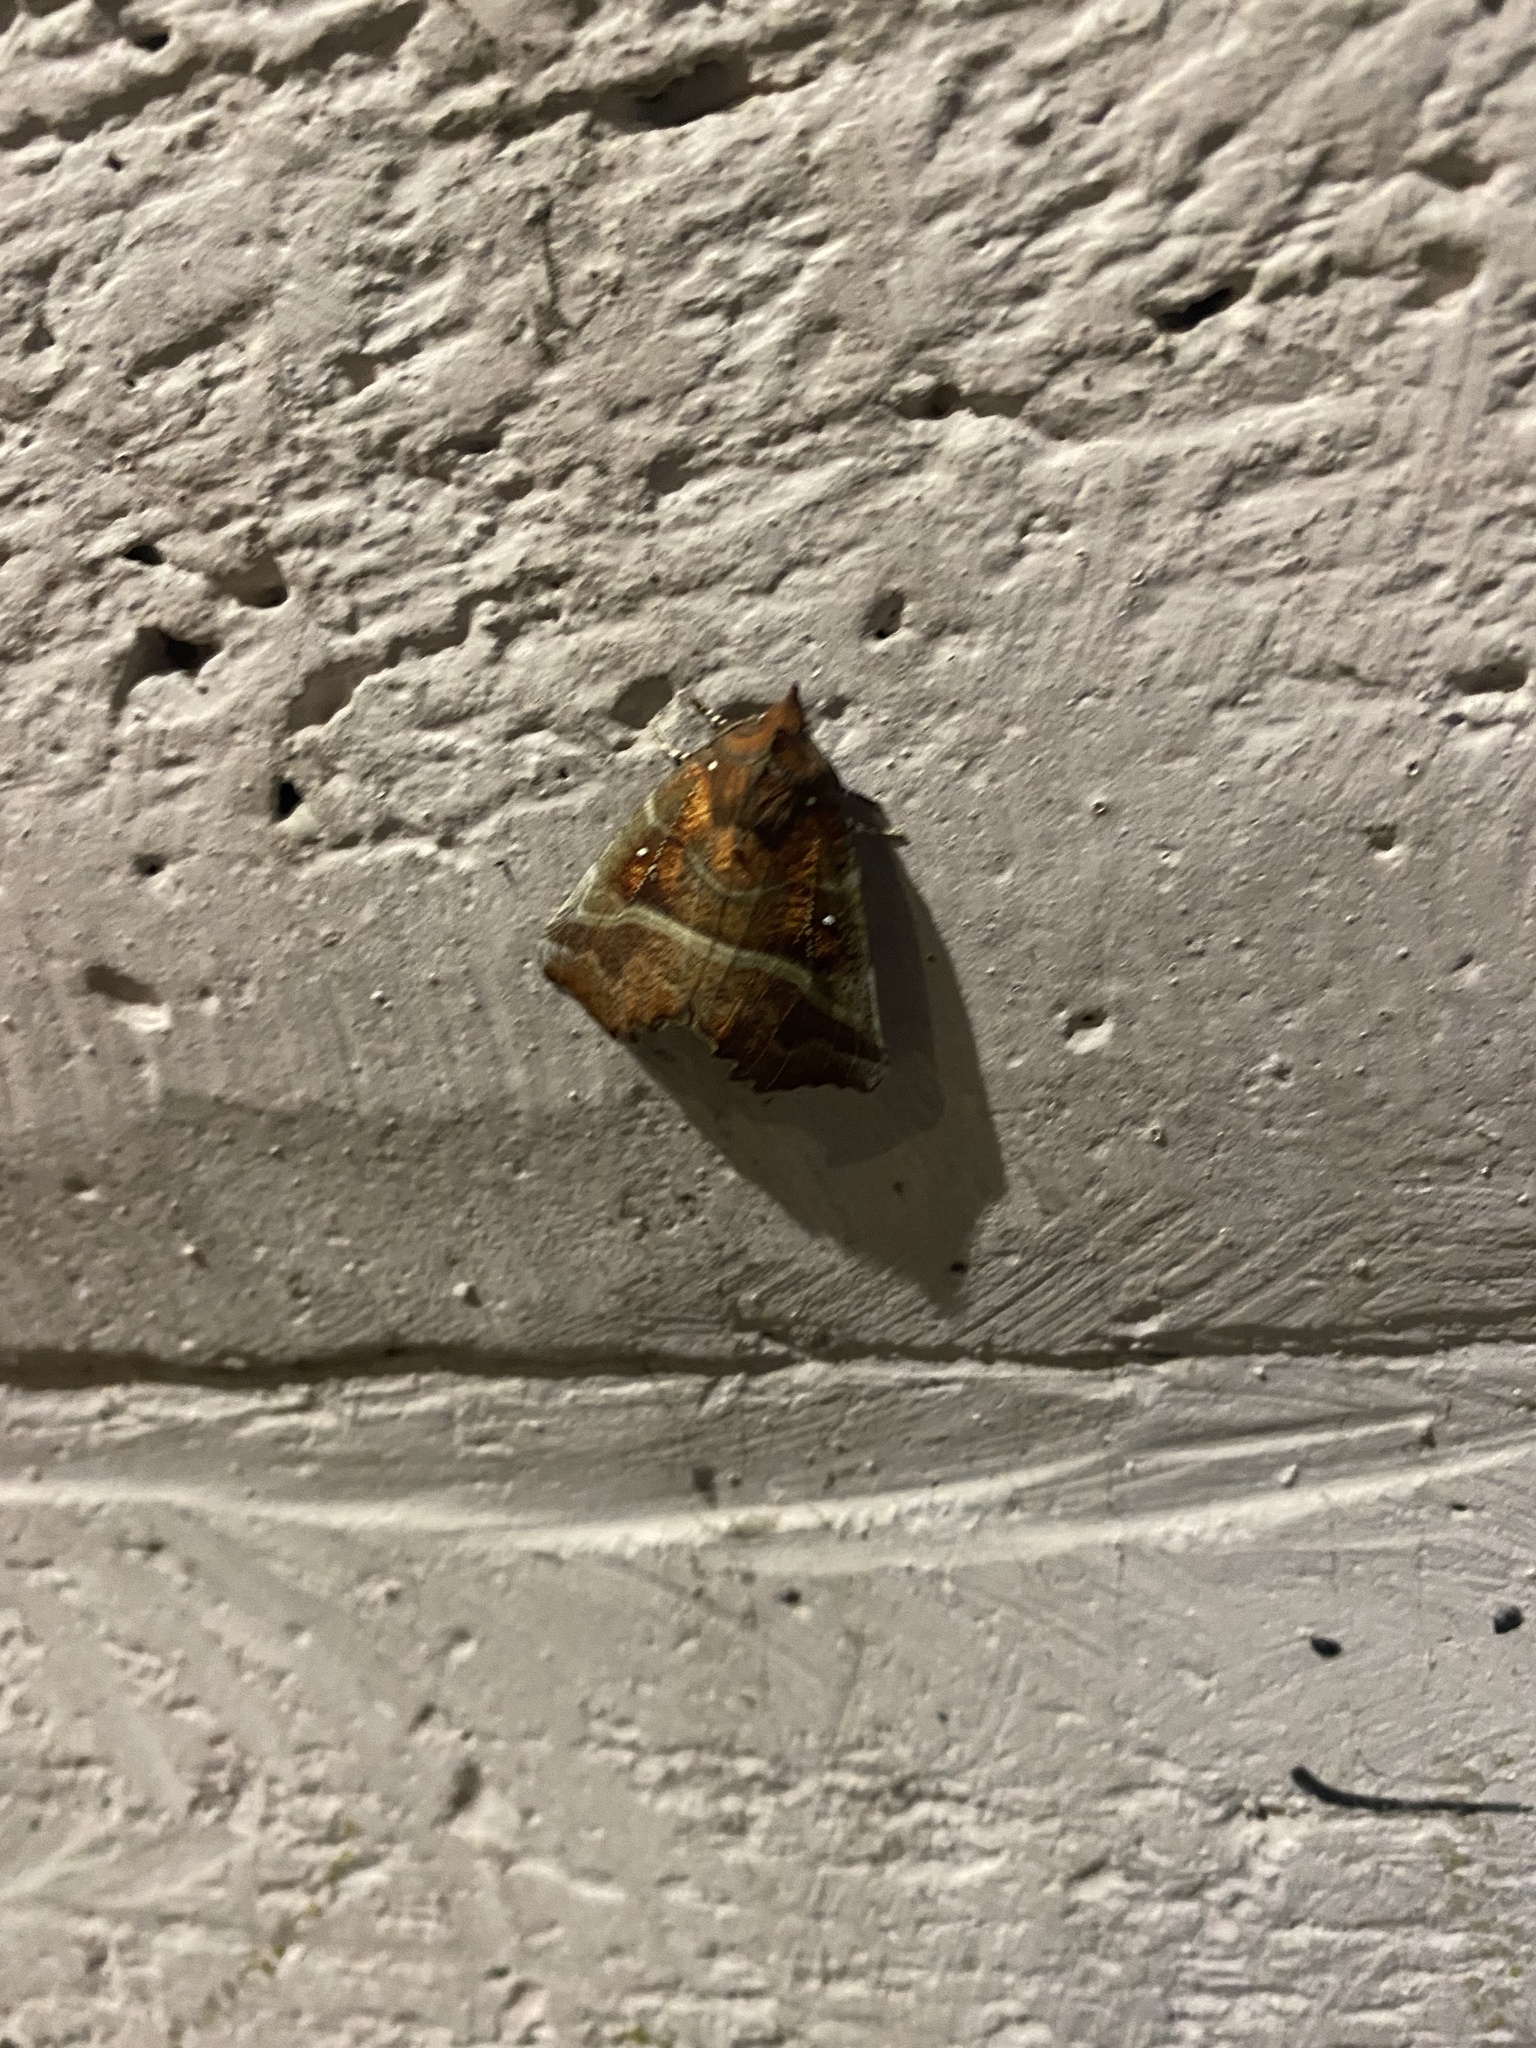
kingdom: Animalia
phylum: Arthropoda
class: Insecta
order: Lepidoptera
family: Erebidae
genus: Scoliopteryx
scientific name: Scoliopteryx libatrix
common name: Herald
